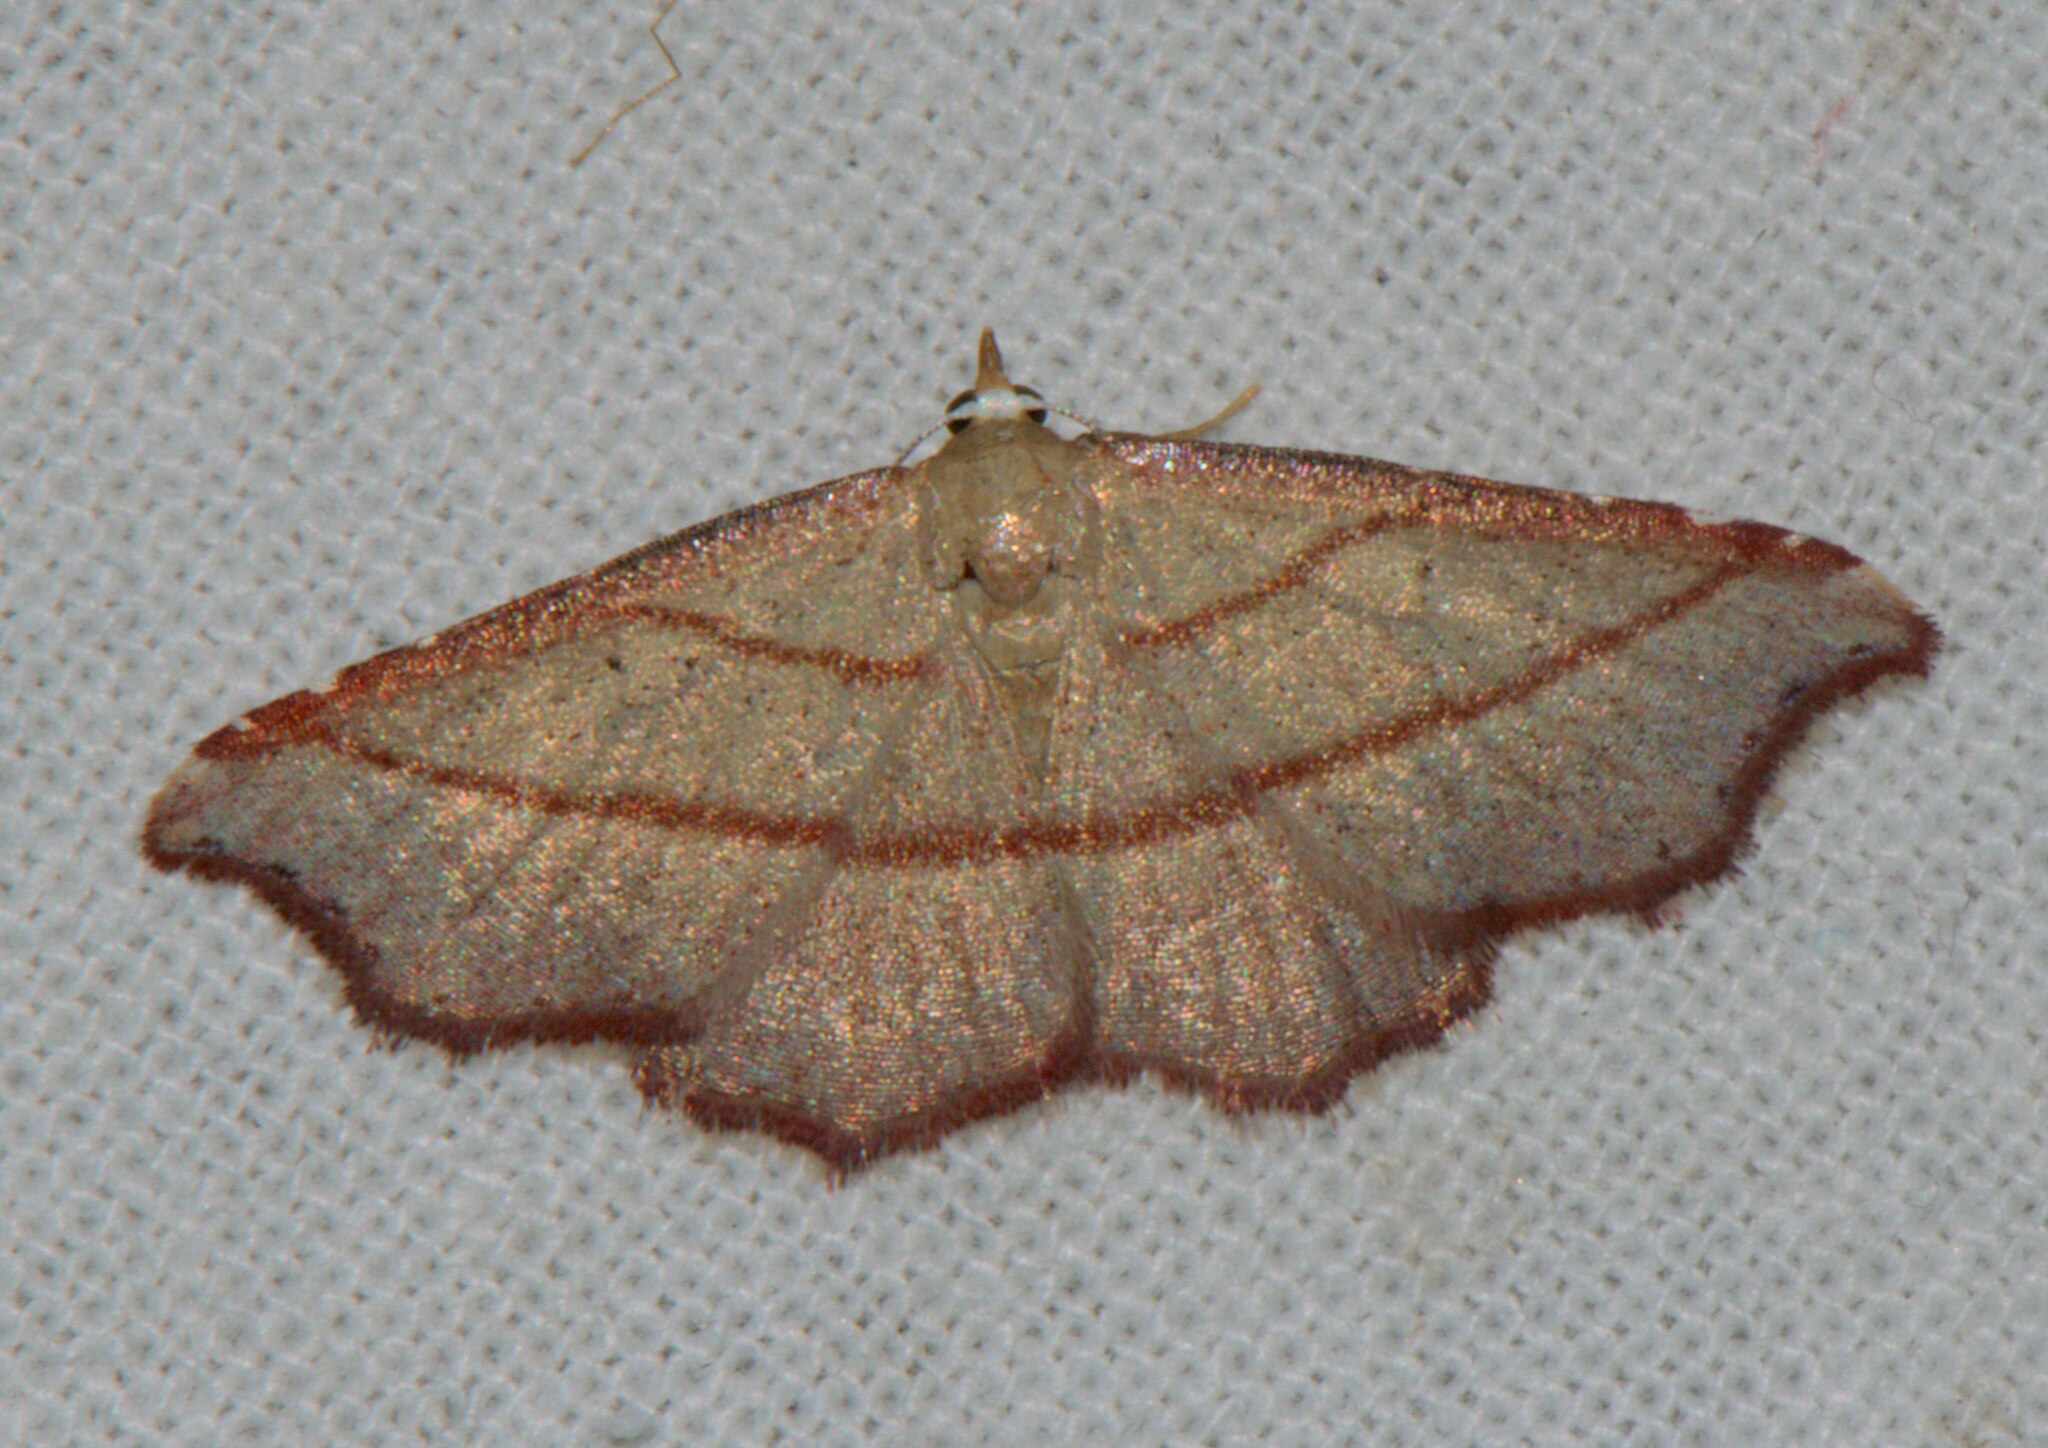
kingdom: Animalia
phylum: Arthropoda
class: Insecta
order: Lepidoptera
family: Noctuidae
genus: Enispa
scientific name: Enispa
